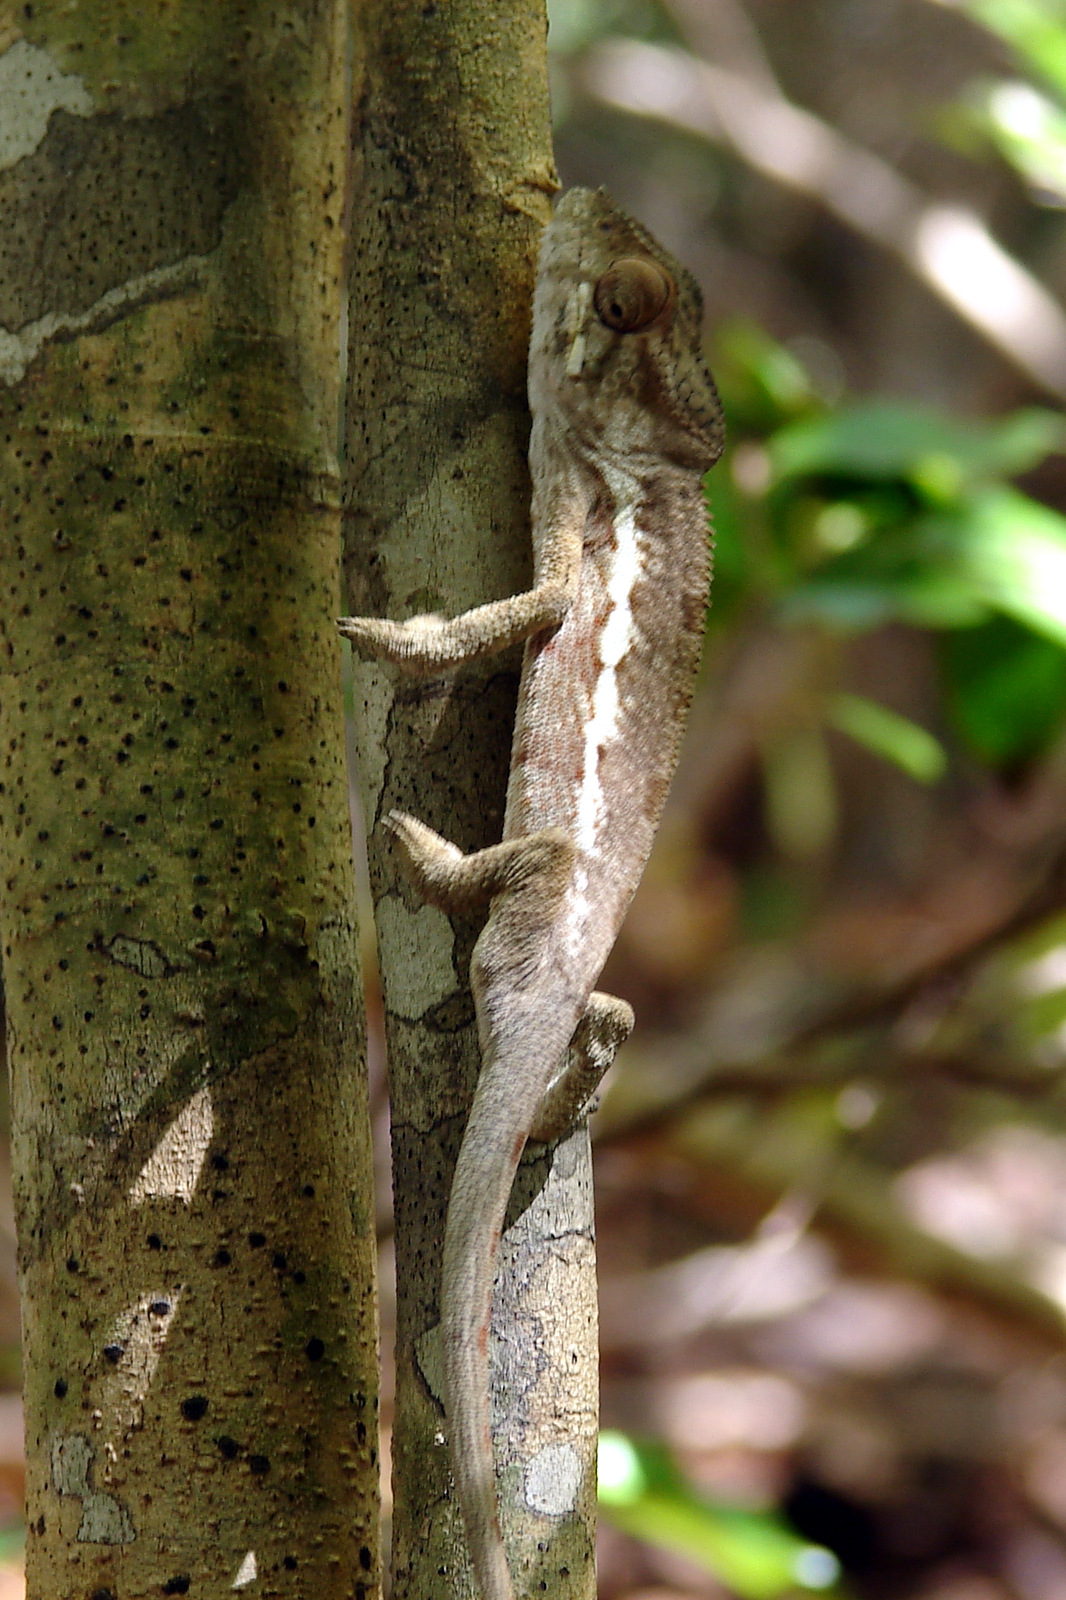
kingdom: Animalia
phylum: Chordata
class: Squamata
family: Chamaeleonidae
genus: Furcifer
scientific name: Furcifer pardalis
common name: Panther chameleon
